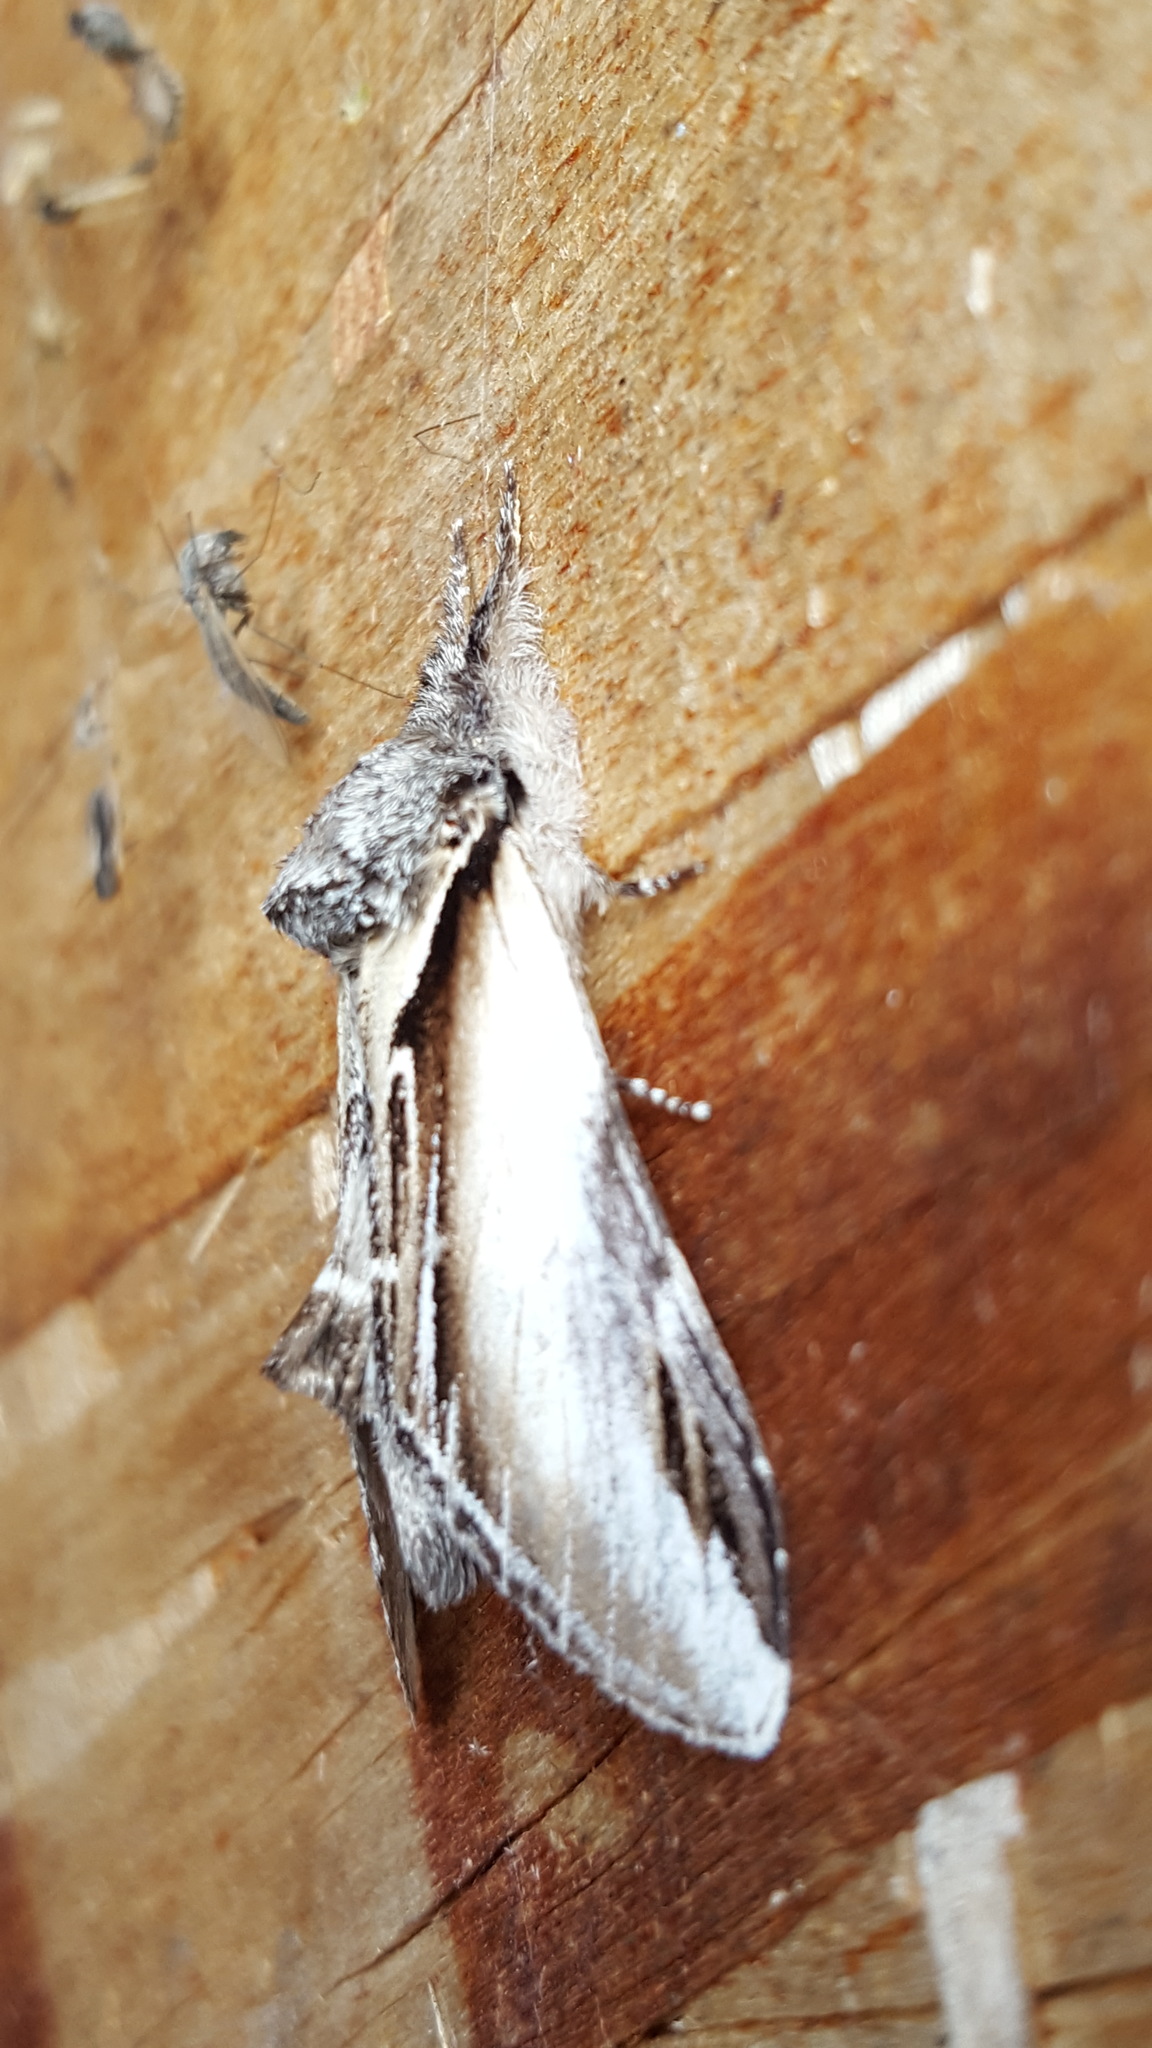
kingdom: Animalia
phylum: Arthropoda
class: Insecta
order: Lepidoptera
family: Notodontidae
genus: Pheosia
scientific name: Pheosia rimosa
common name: Black-rimmed prominent
